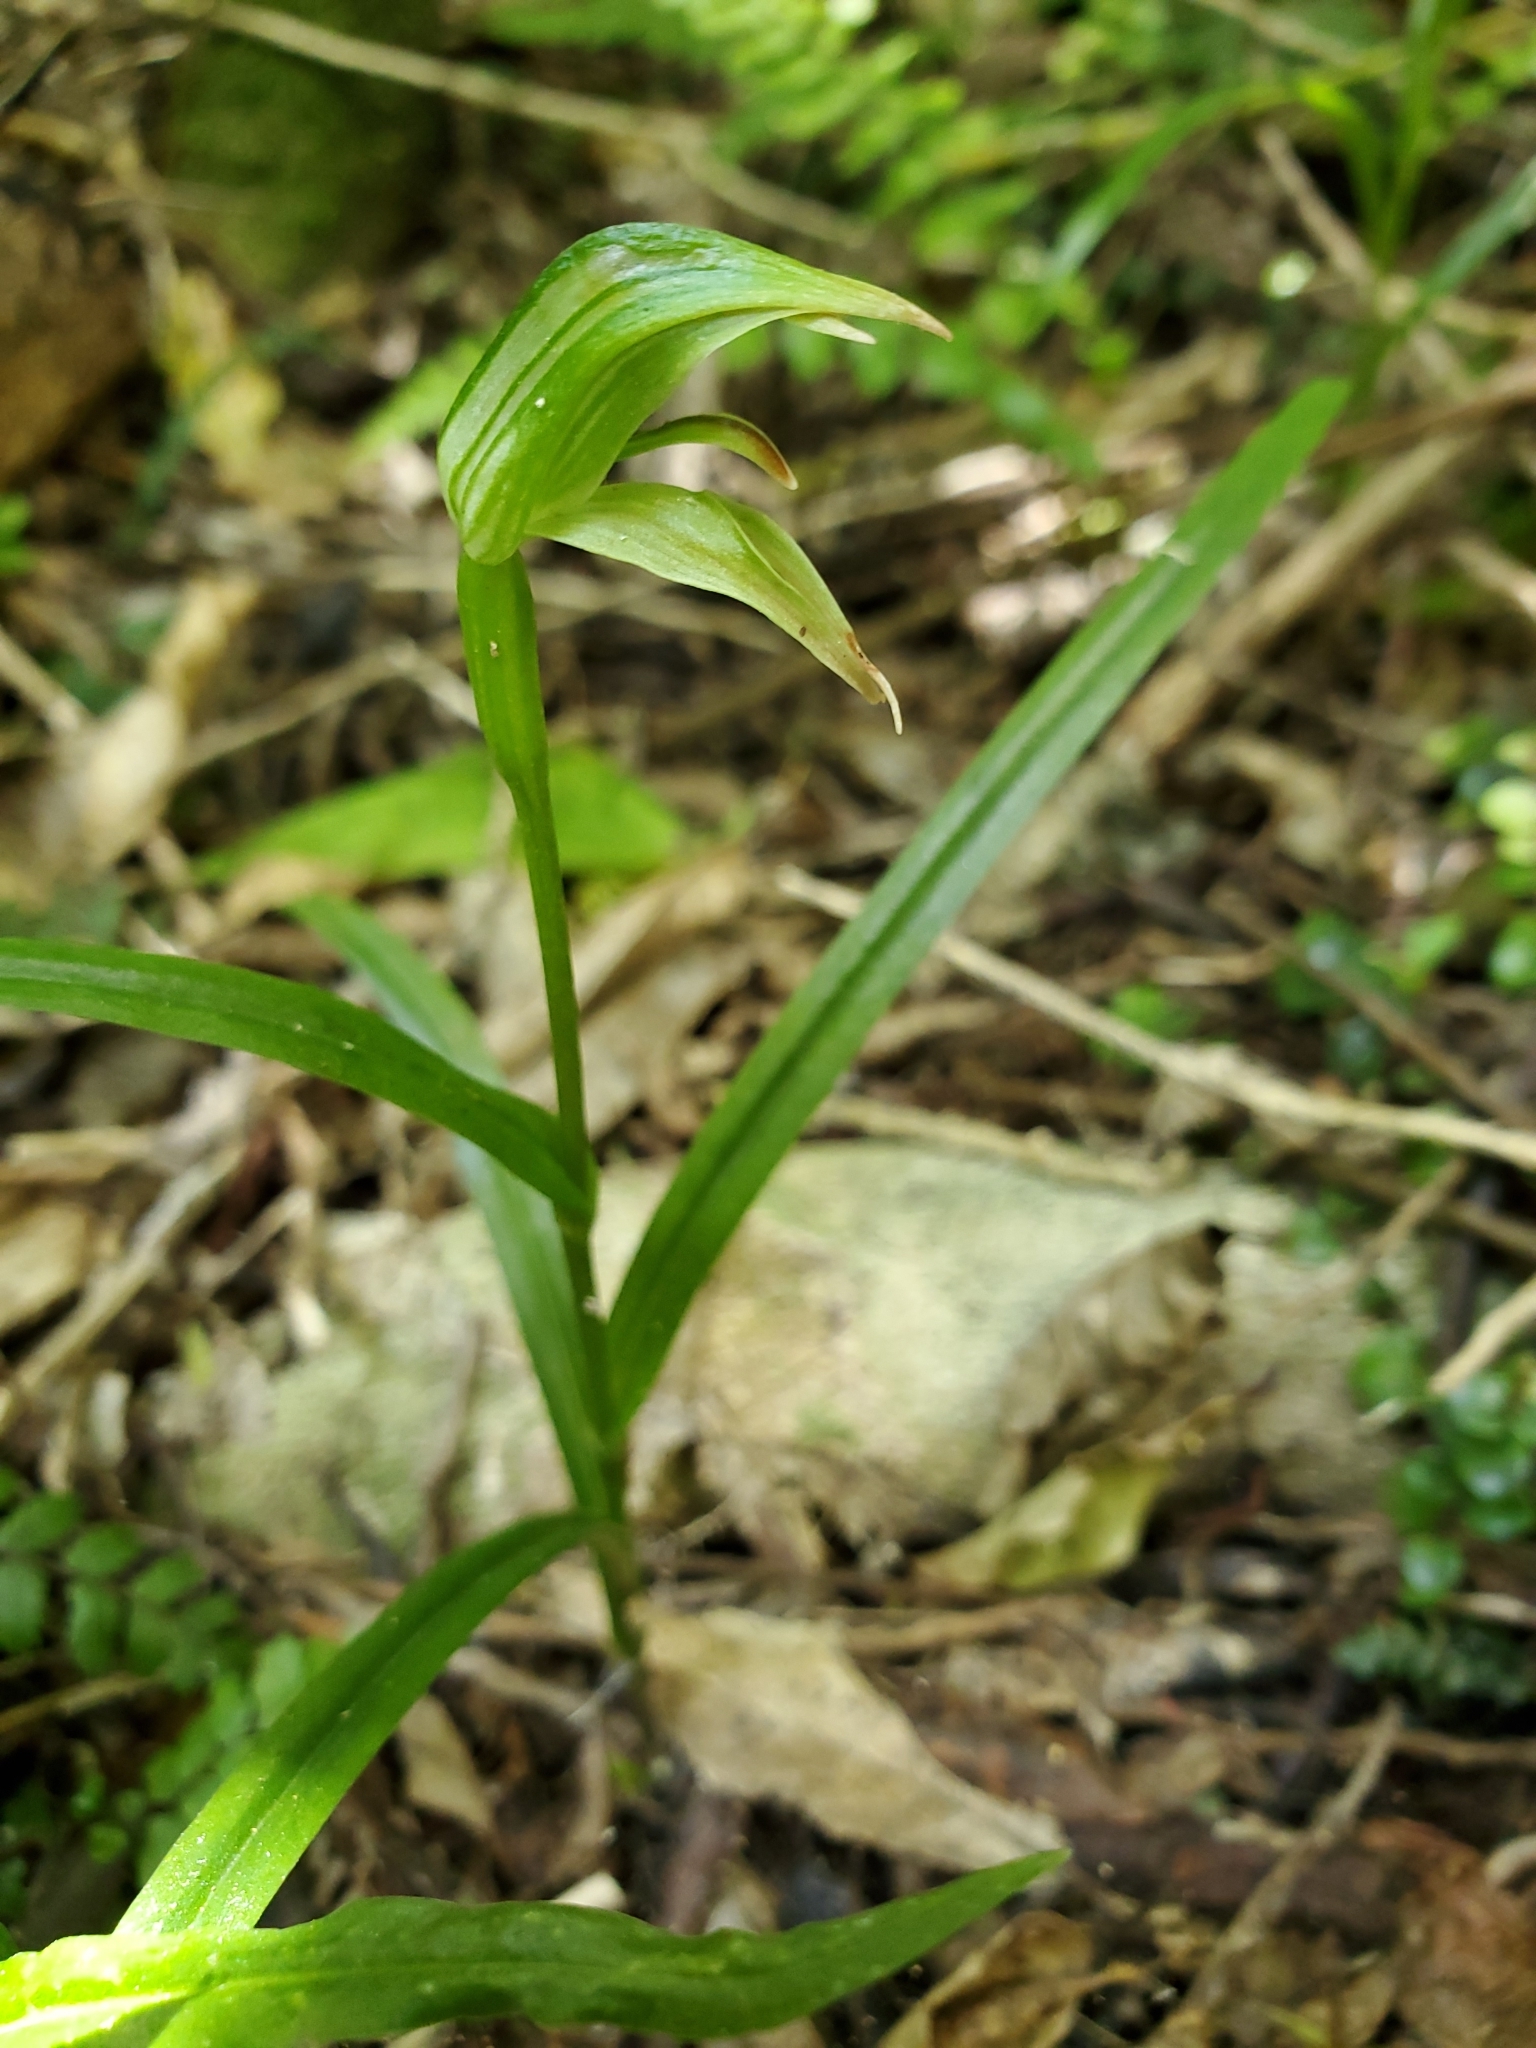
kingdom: Plantae
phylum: Tracheophyta
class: Liliopsida
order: Asparagales
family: Orchidaceae
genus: Pterostylis
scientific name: Pterostylis porrecta
